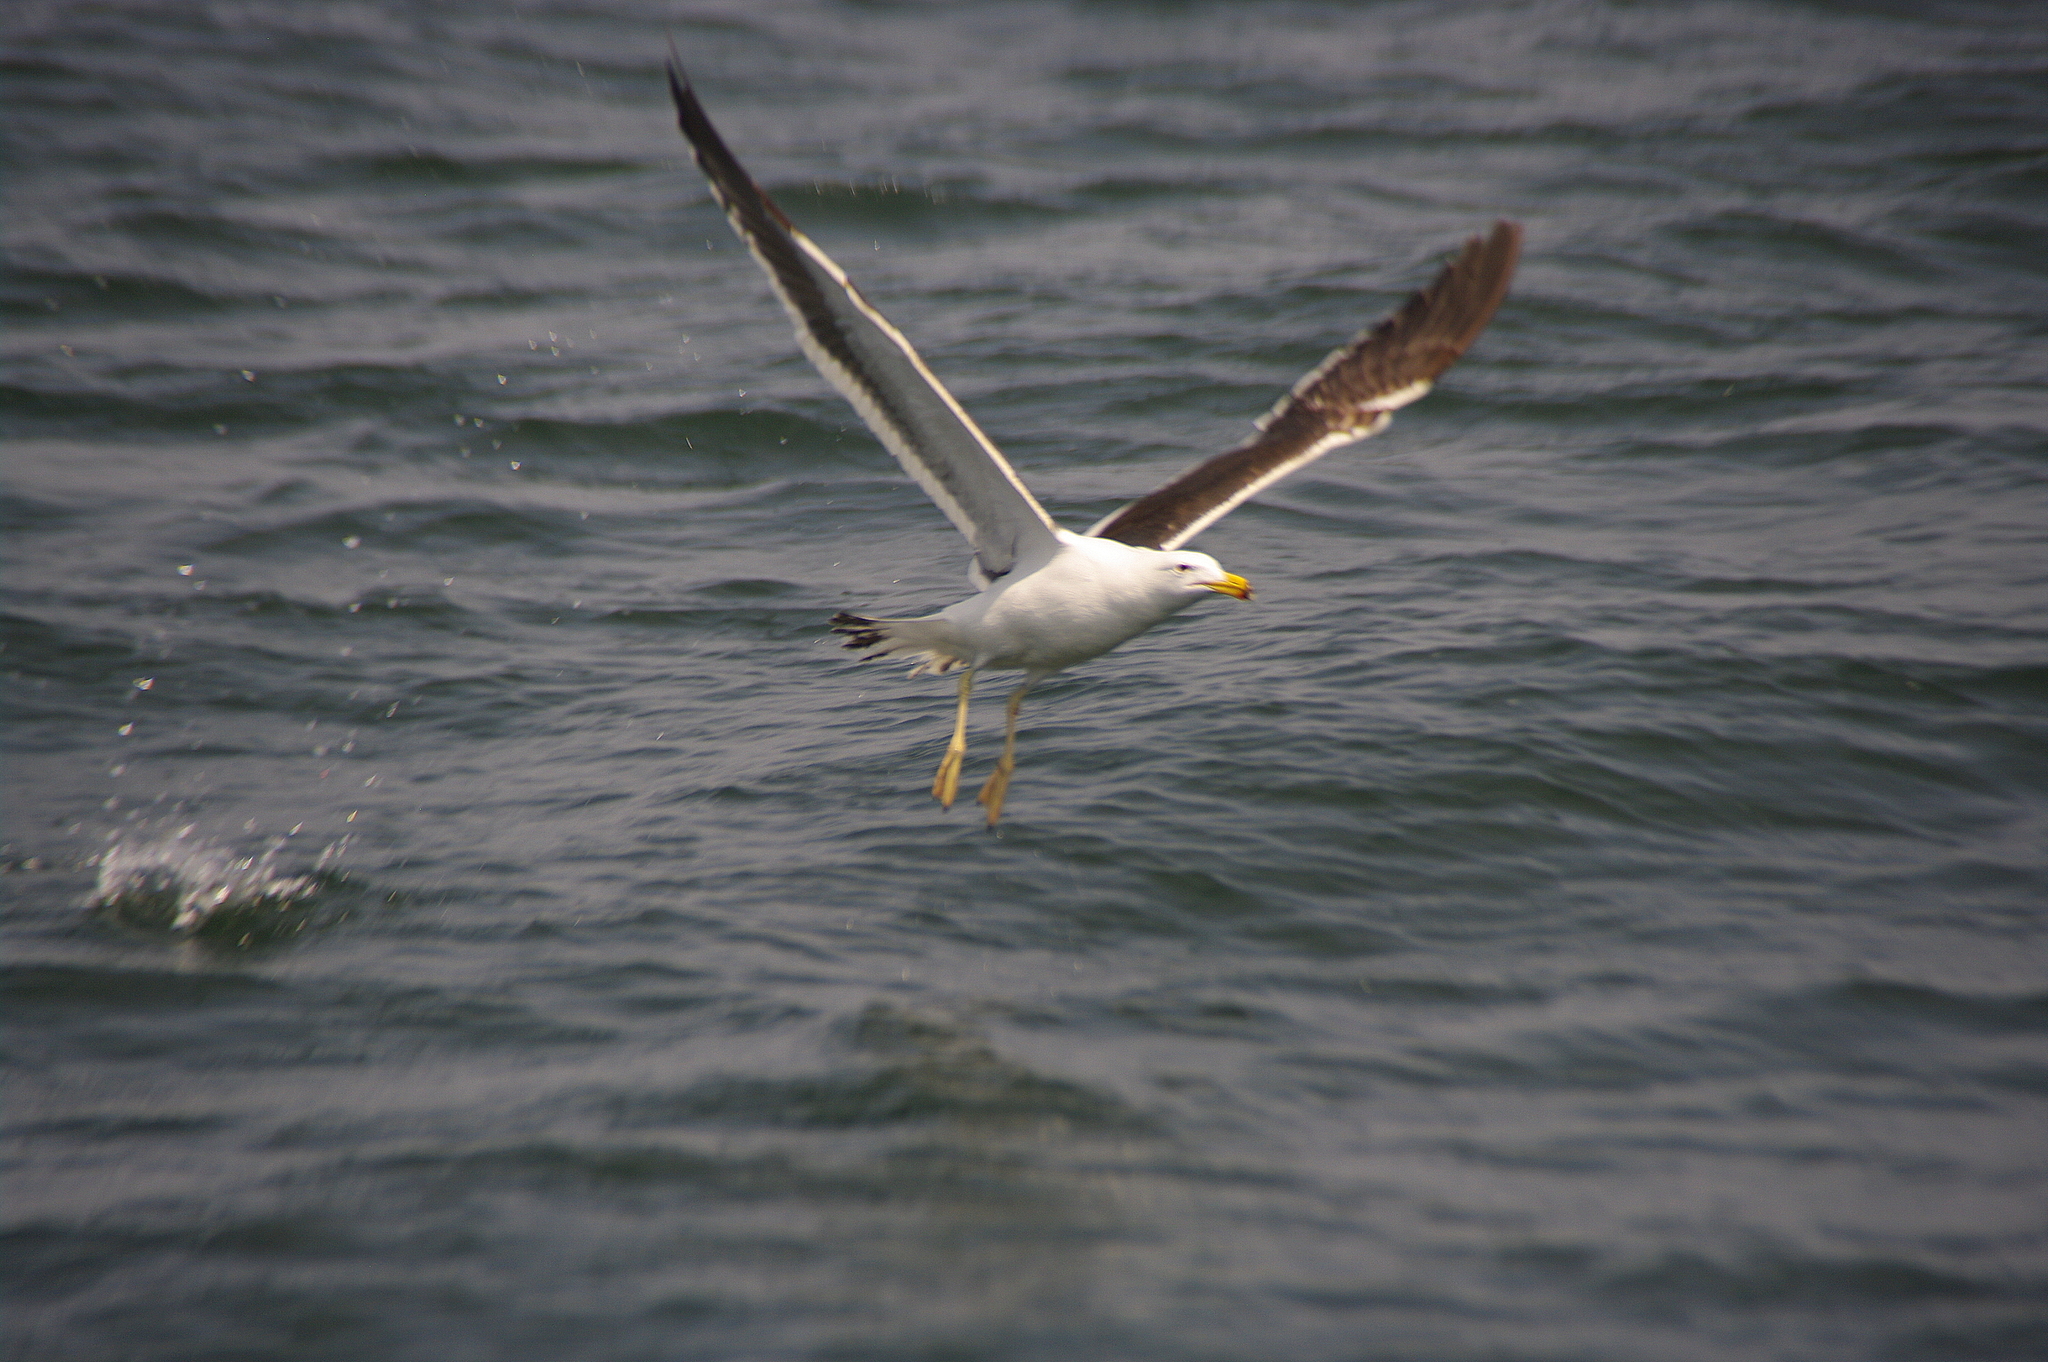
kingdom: Animalia
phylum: Chordata
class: Aves
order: Charadriiformes
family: Laridae
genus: Larus
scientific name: Larus belcheri
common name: Belcher's gull
